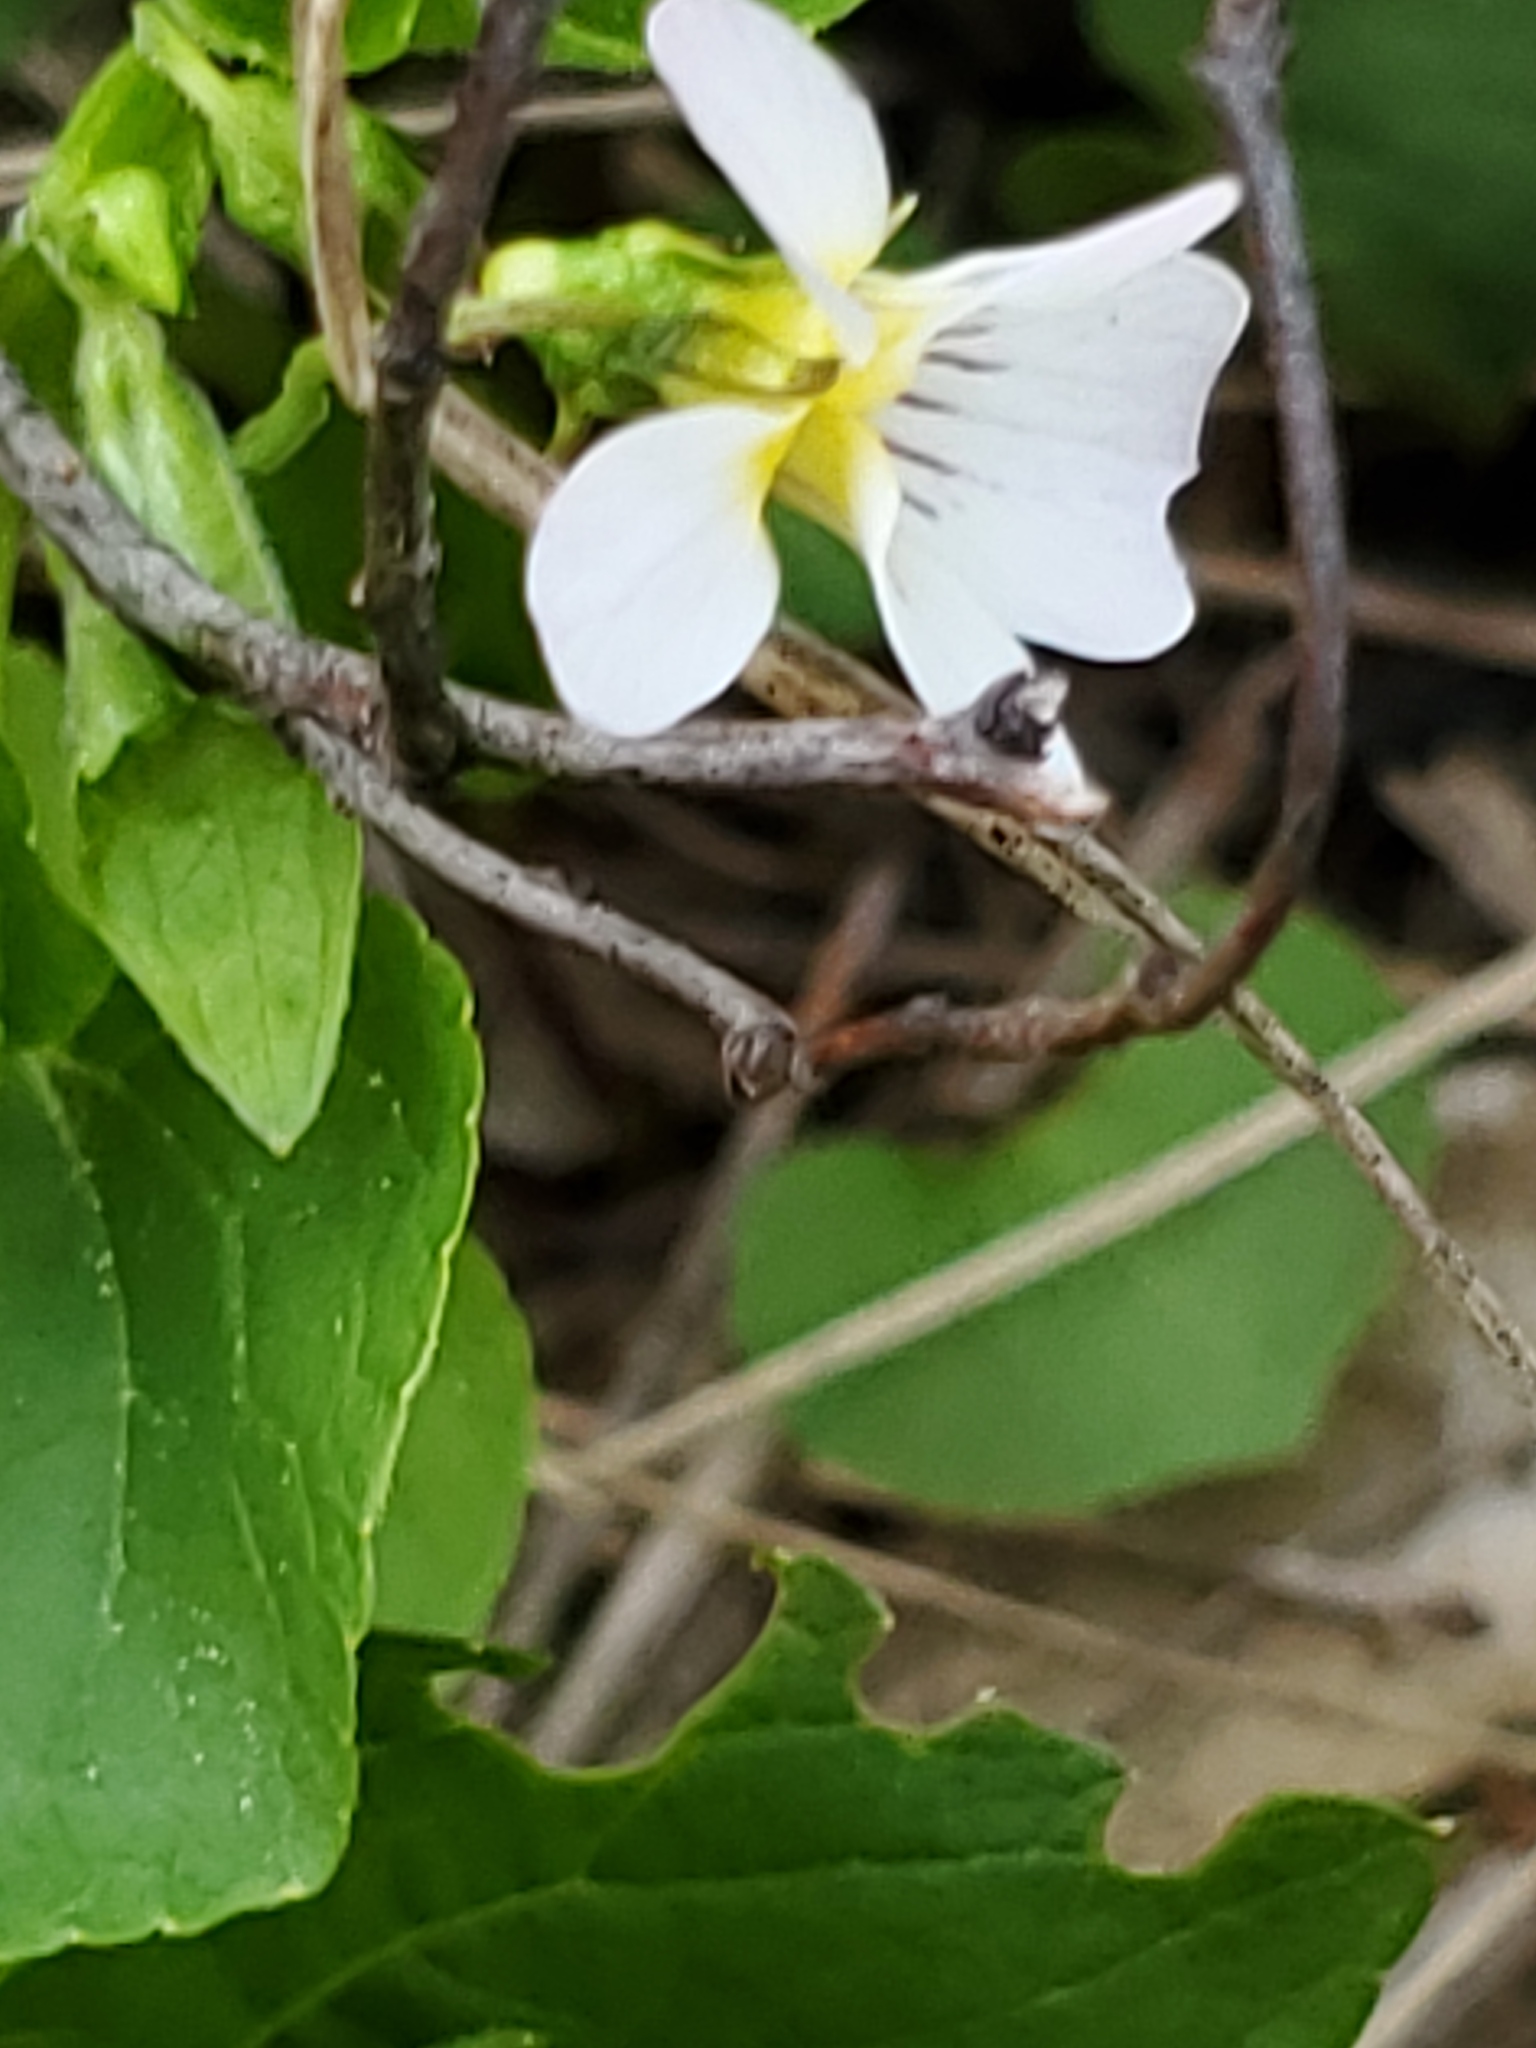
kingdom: Plantae
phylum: Tracheophyta
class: Magnoliopsida
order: Malpighiales
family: Violaceae
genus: Viola
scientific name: Viola canadensis
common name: Canada violet
